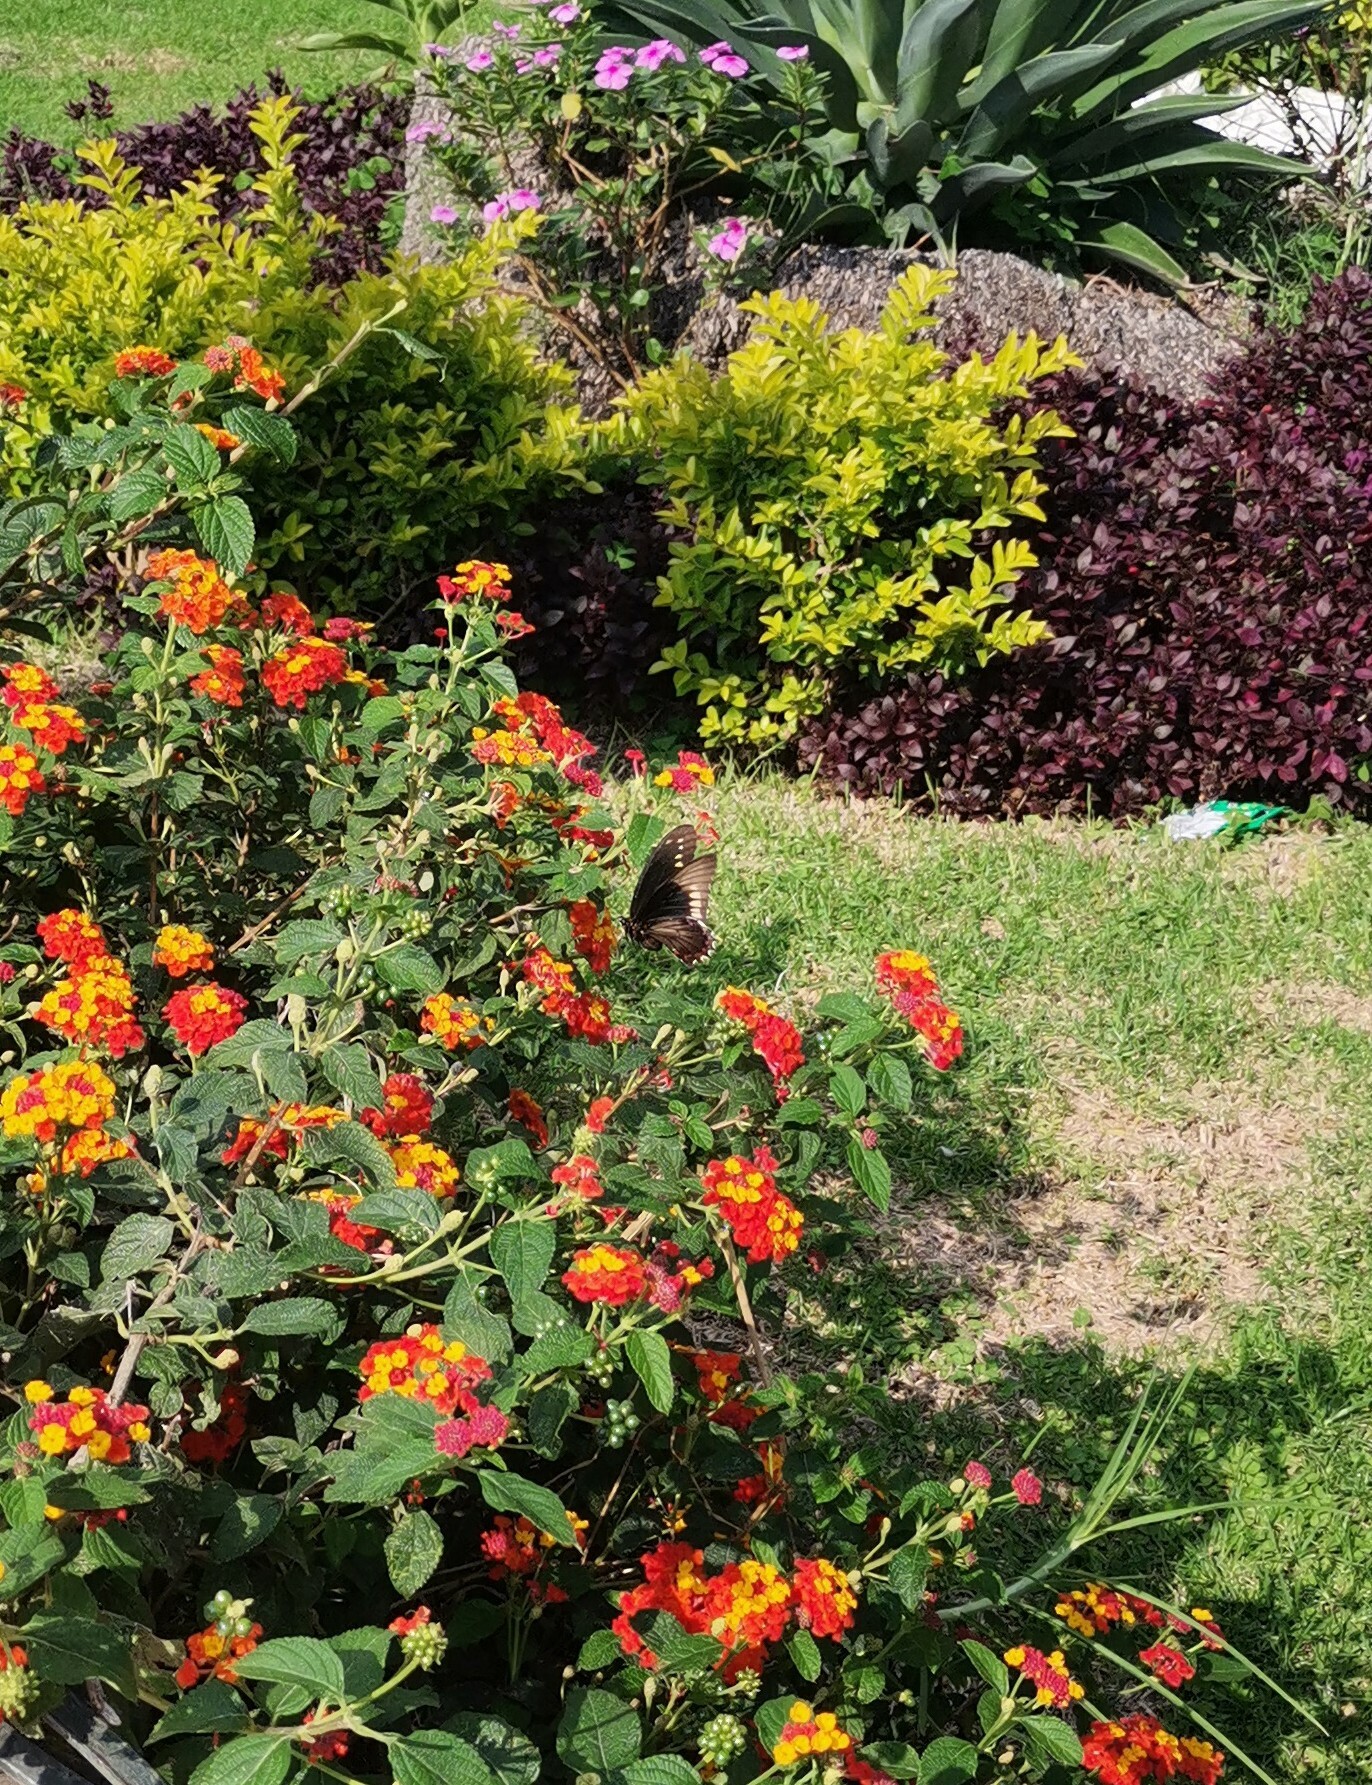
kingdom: Animalia
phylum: Arthropoda
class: Insecta
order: Lepidoptera
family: Papilionidae
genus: Battus
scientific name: Battus polydamas
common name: Polydamas swallowtail
